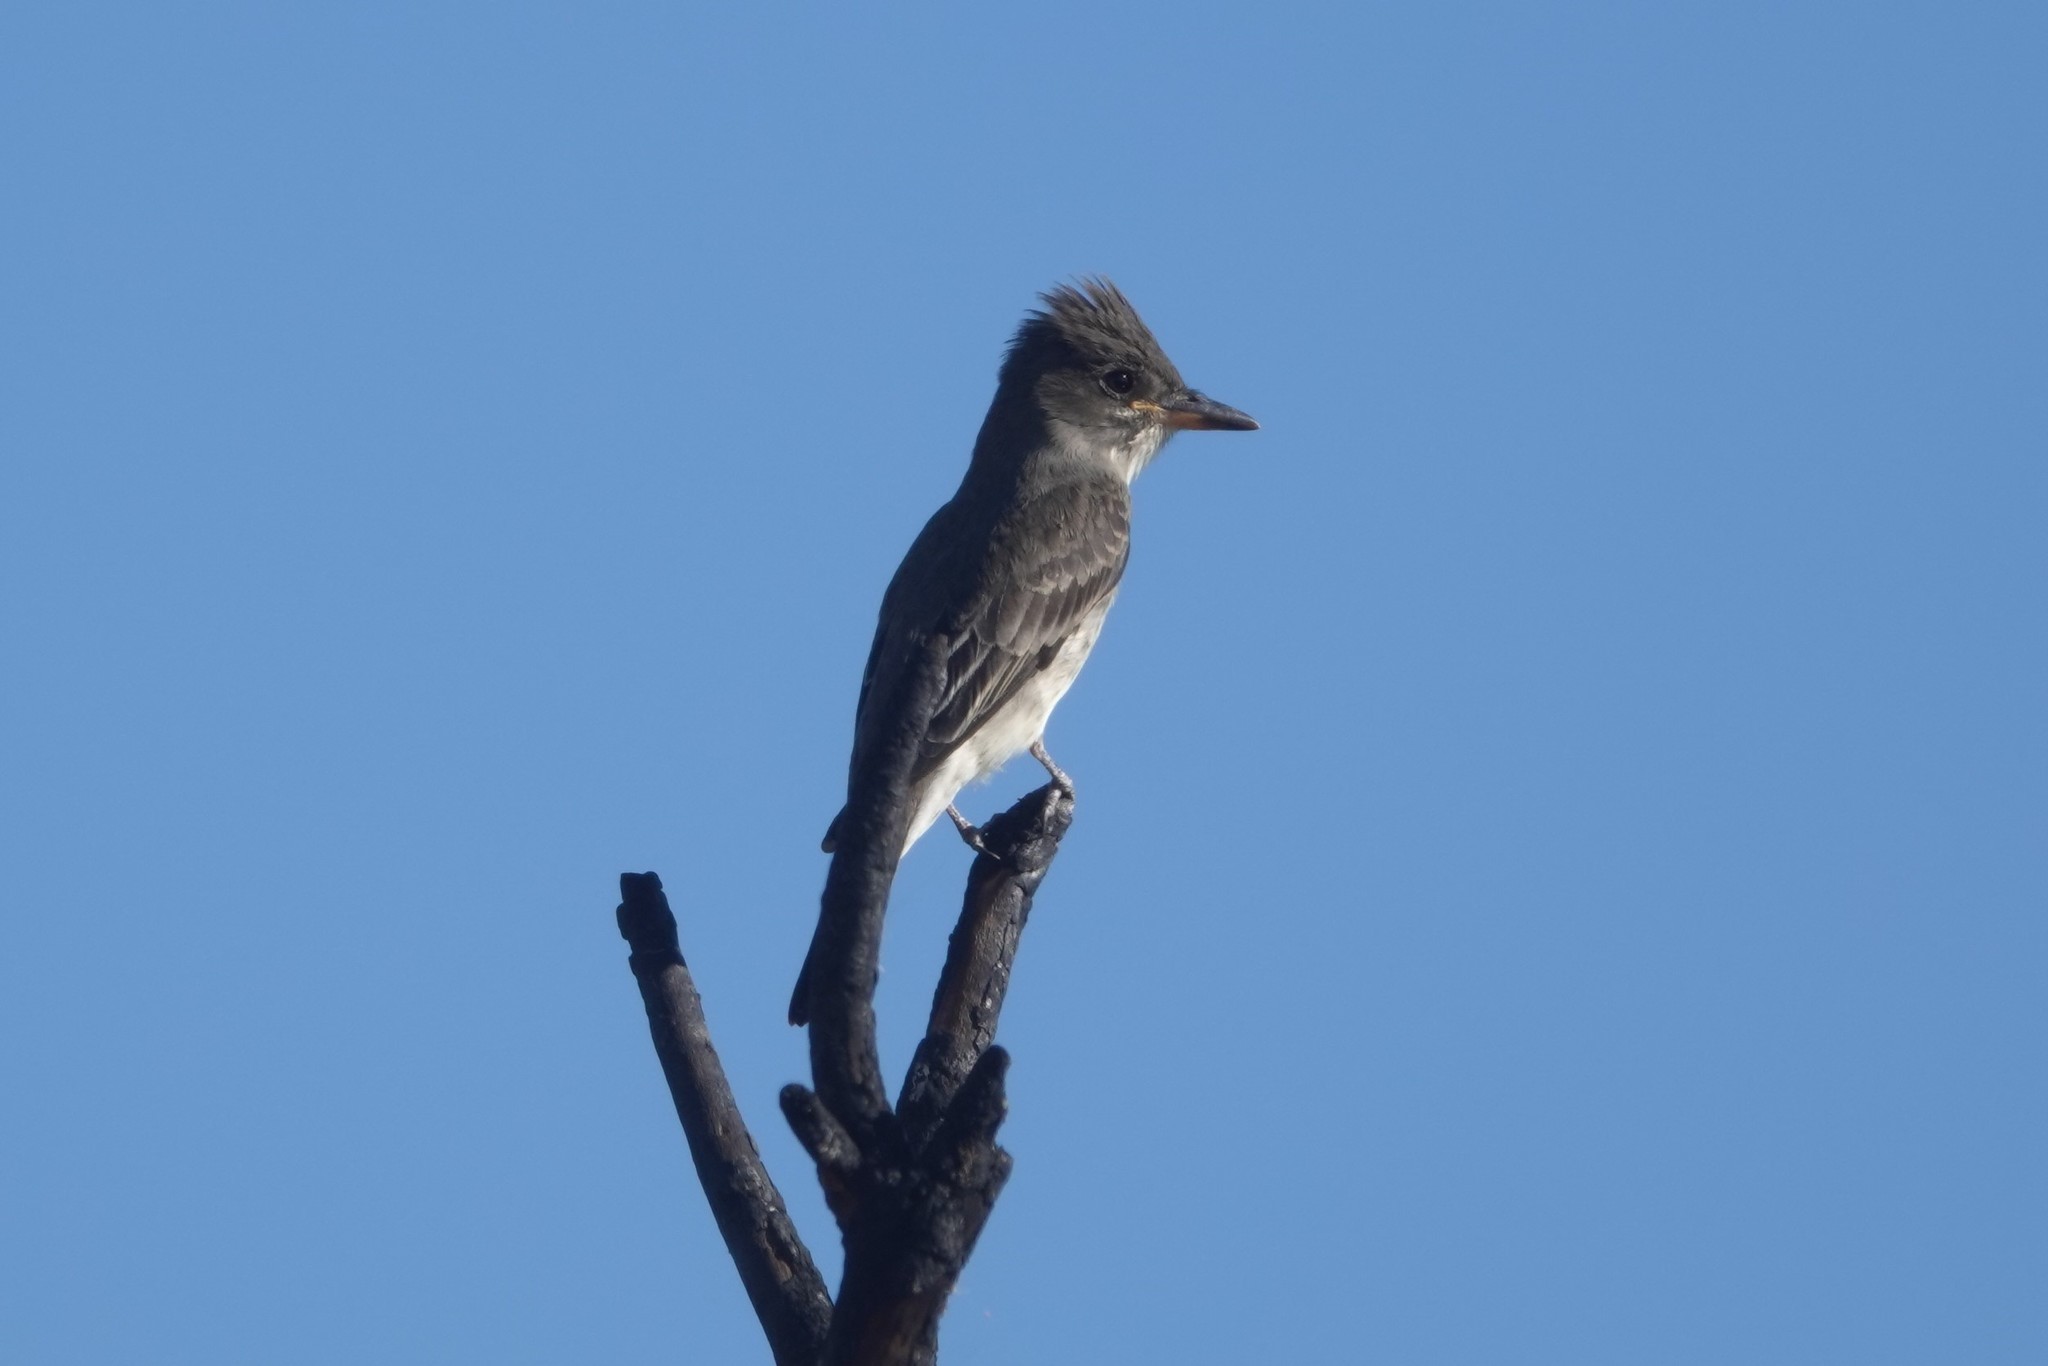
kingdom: Animalia
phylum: Chordata
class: Aves
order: Passeriformes
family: Tyrannidae
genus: Contopus
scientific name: Contopus cooperi
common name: Olive-sided flycatcher
